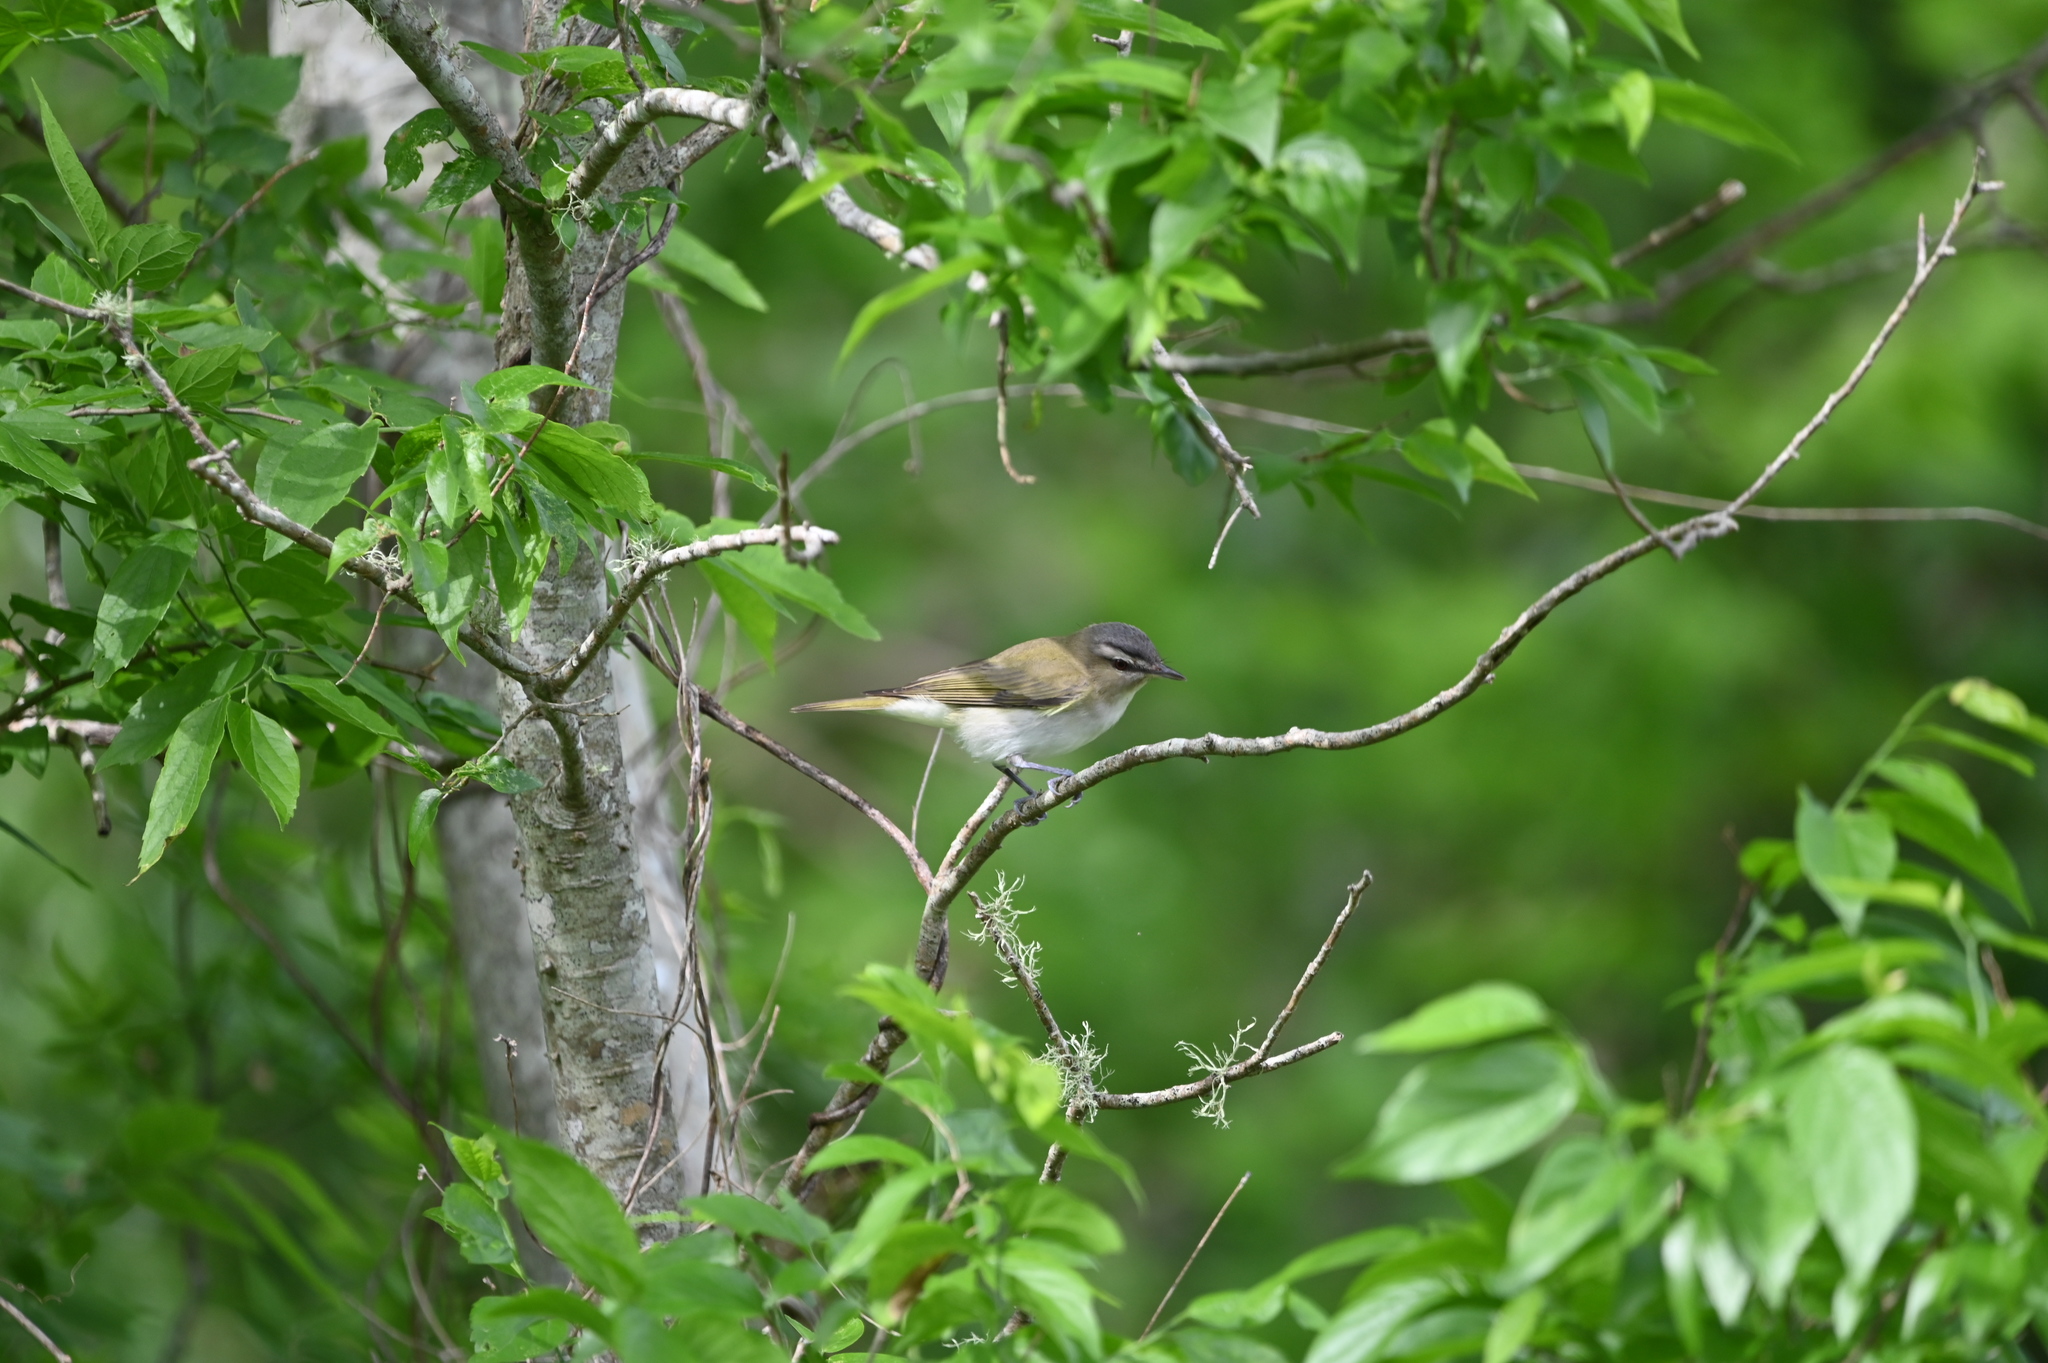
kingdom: Animalia
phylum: Chordata
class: Aves
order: Passeriformes
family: Vireonidae
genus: Vireo
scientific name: Vireo olivaceus
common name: Red-eyed vireo
